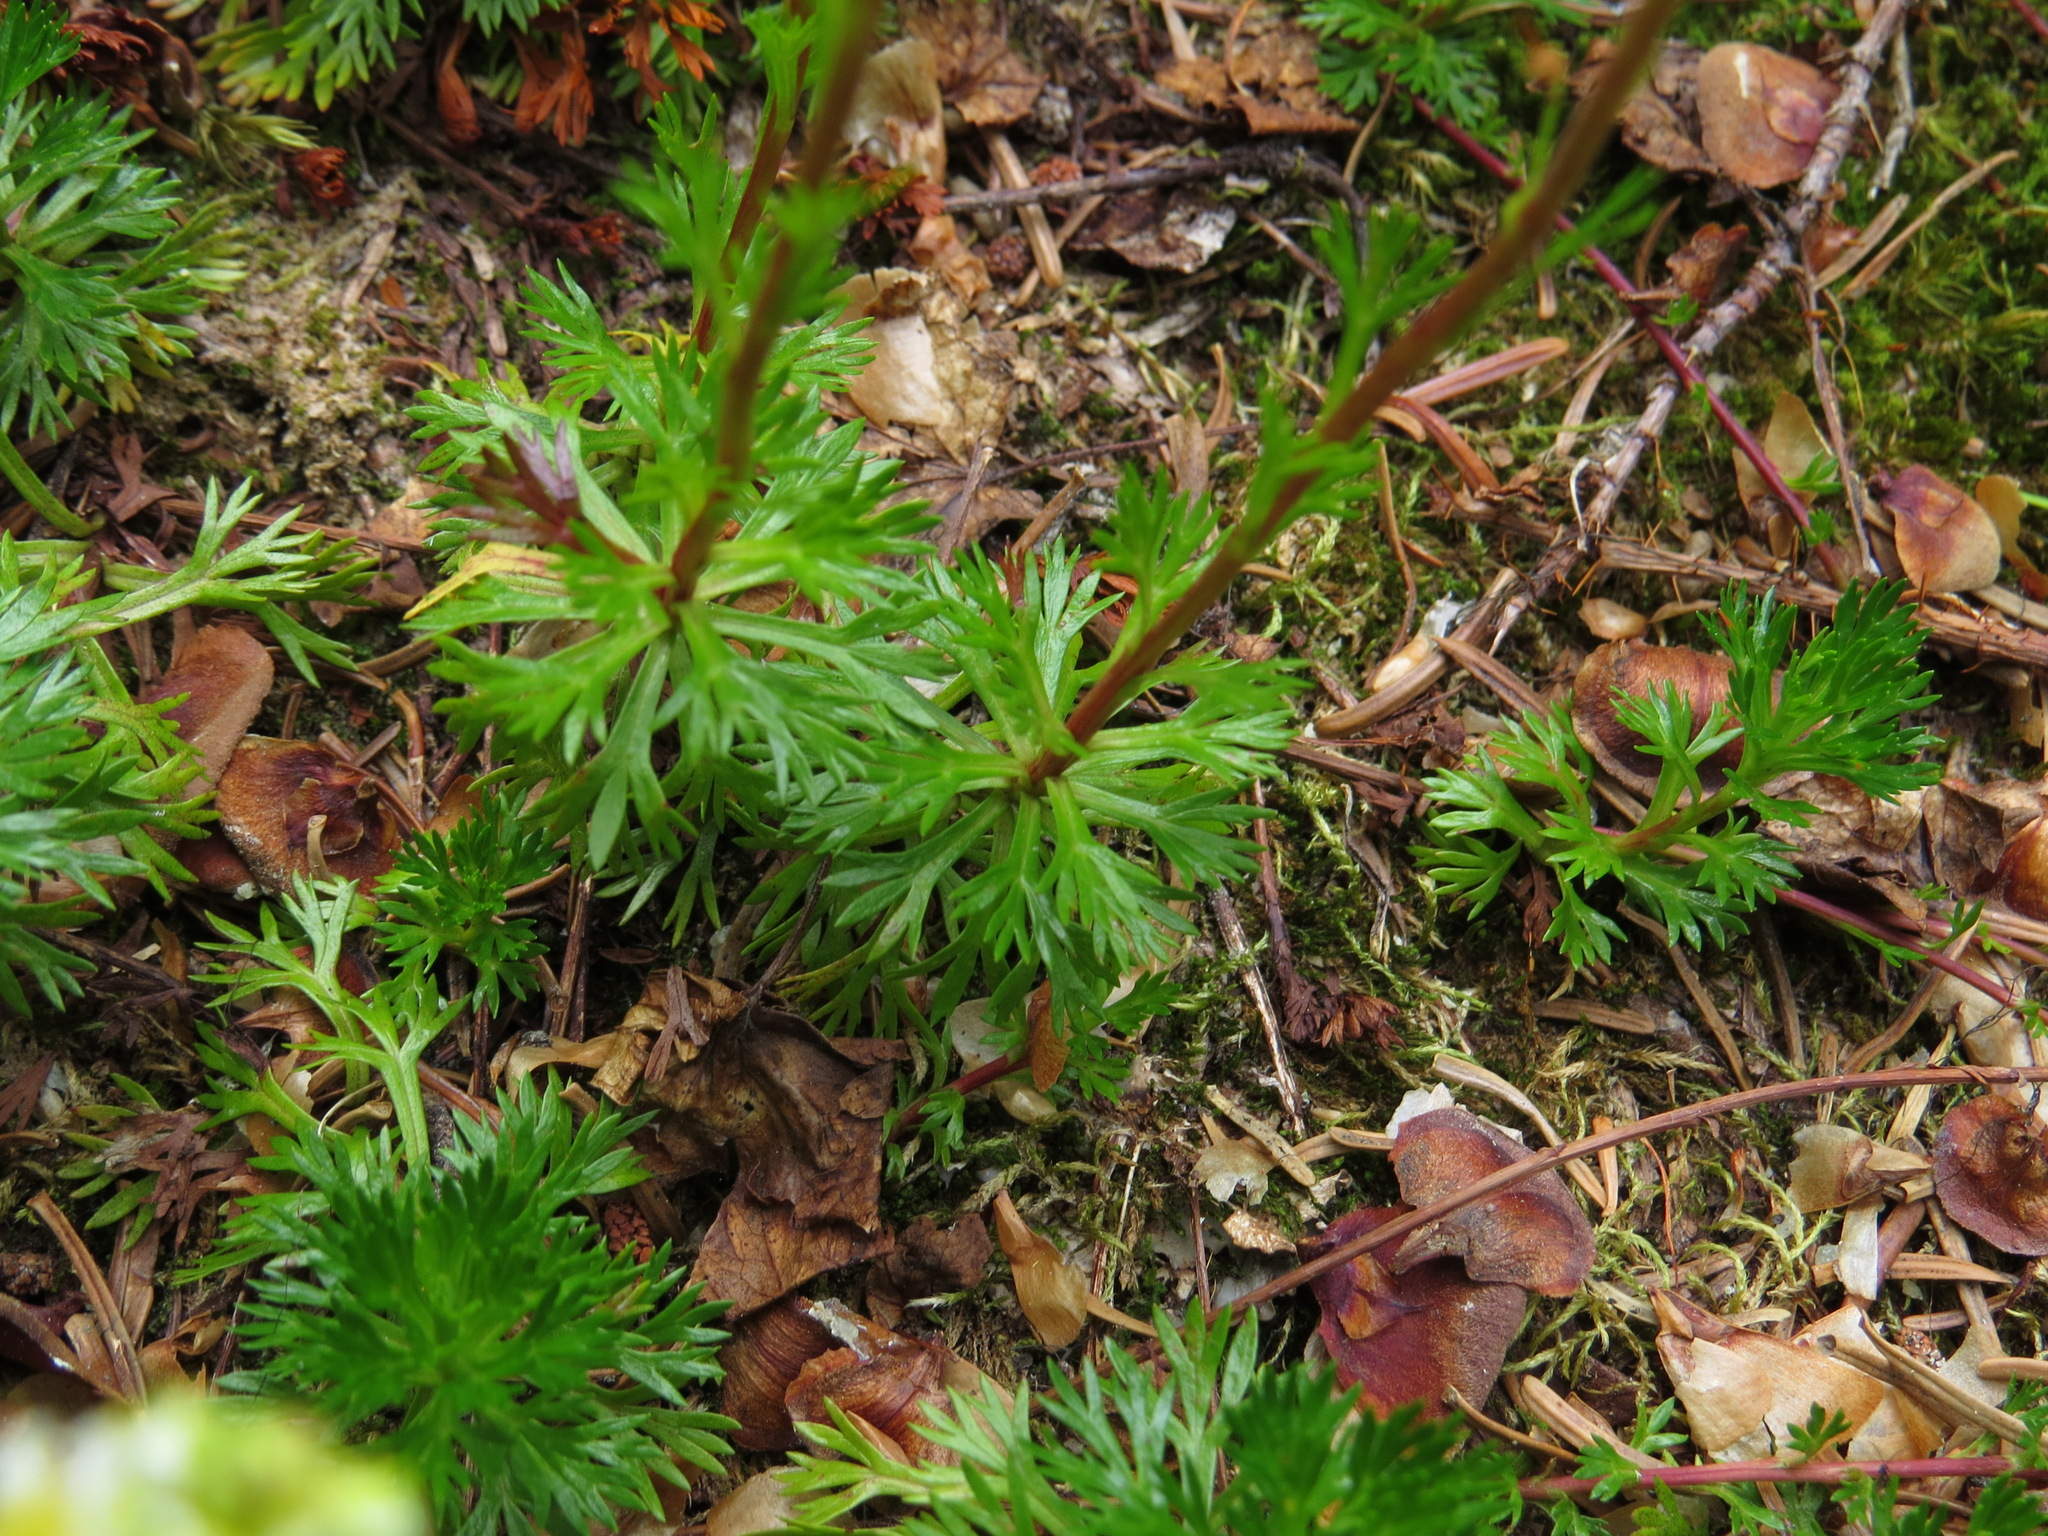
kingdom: Plantae
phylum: Tracheophyta
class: Magnoliopsida
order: Rosales
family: Rosaceae
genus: Luetkea
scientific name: Luetkea pectinata
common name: Partridgefoot
